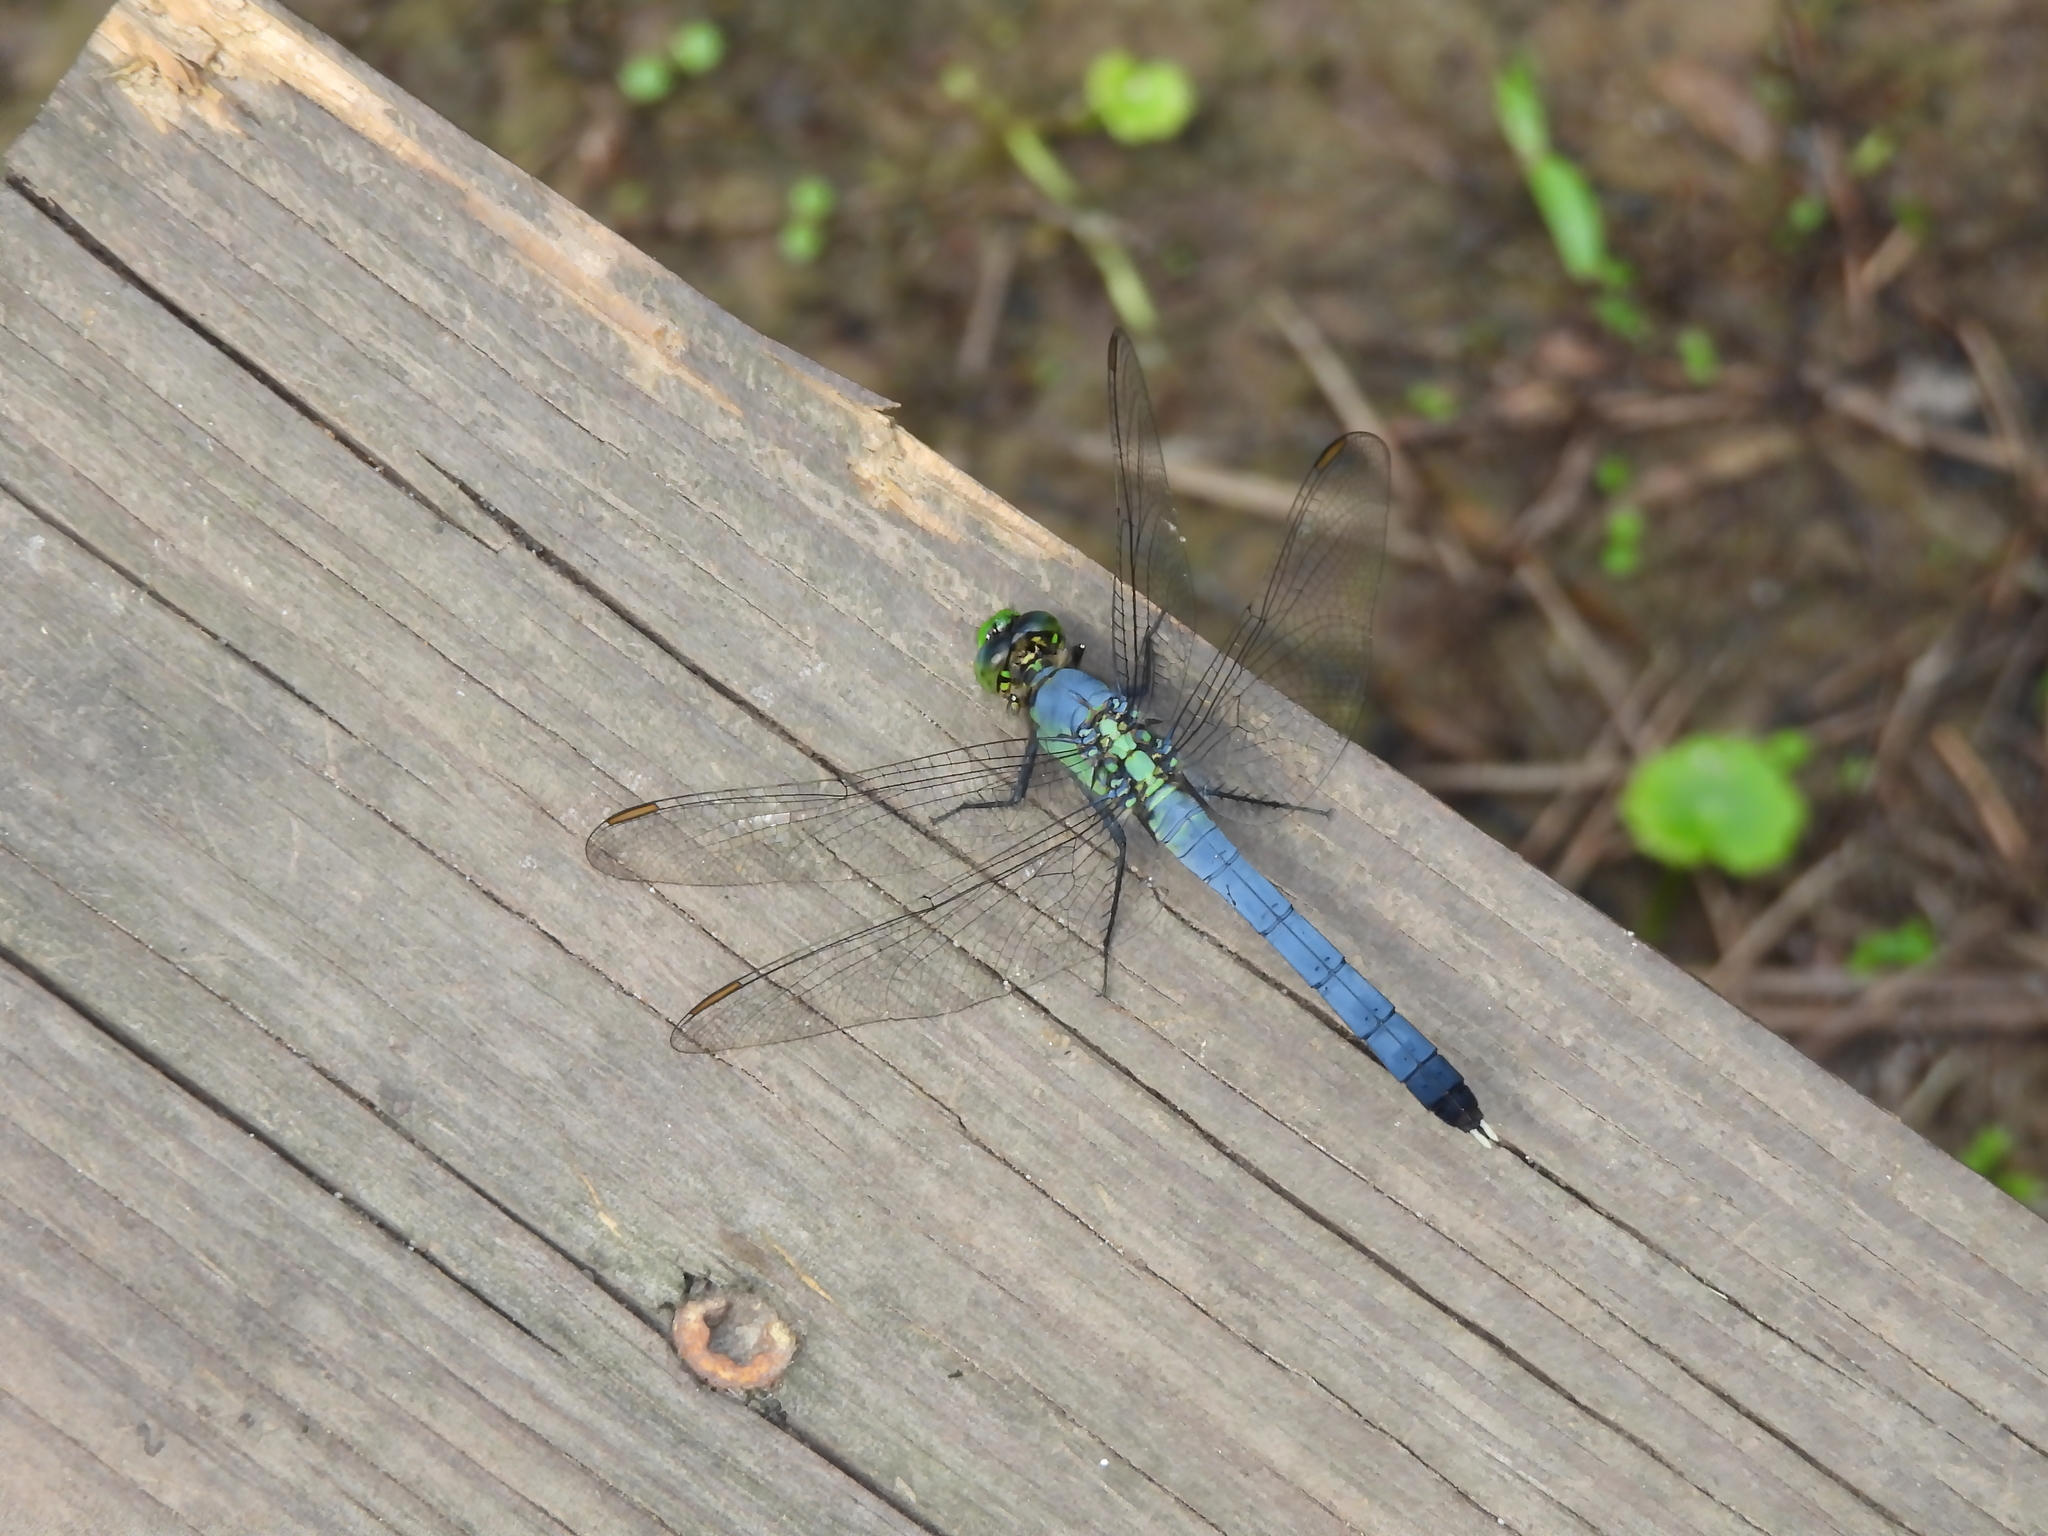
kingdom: Animalia
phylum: Arthropoda
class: Insecta
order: Odonata
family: Libellulidae
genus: Erythemis
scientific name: Erythemis simplicicollis
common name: Eastern pondhawk
